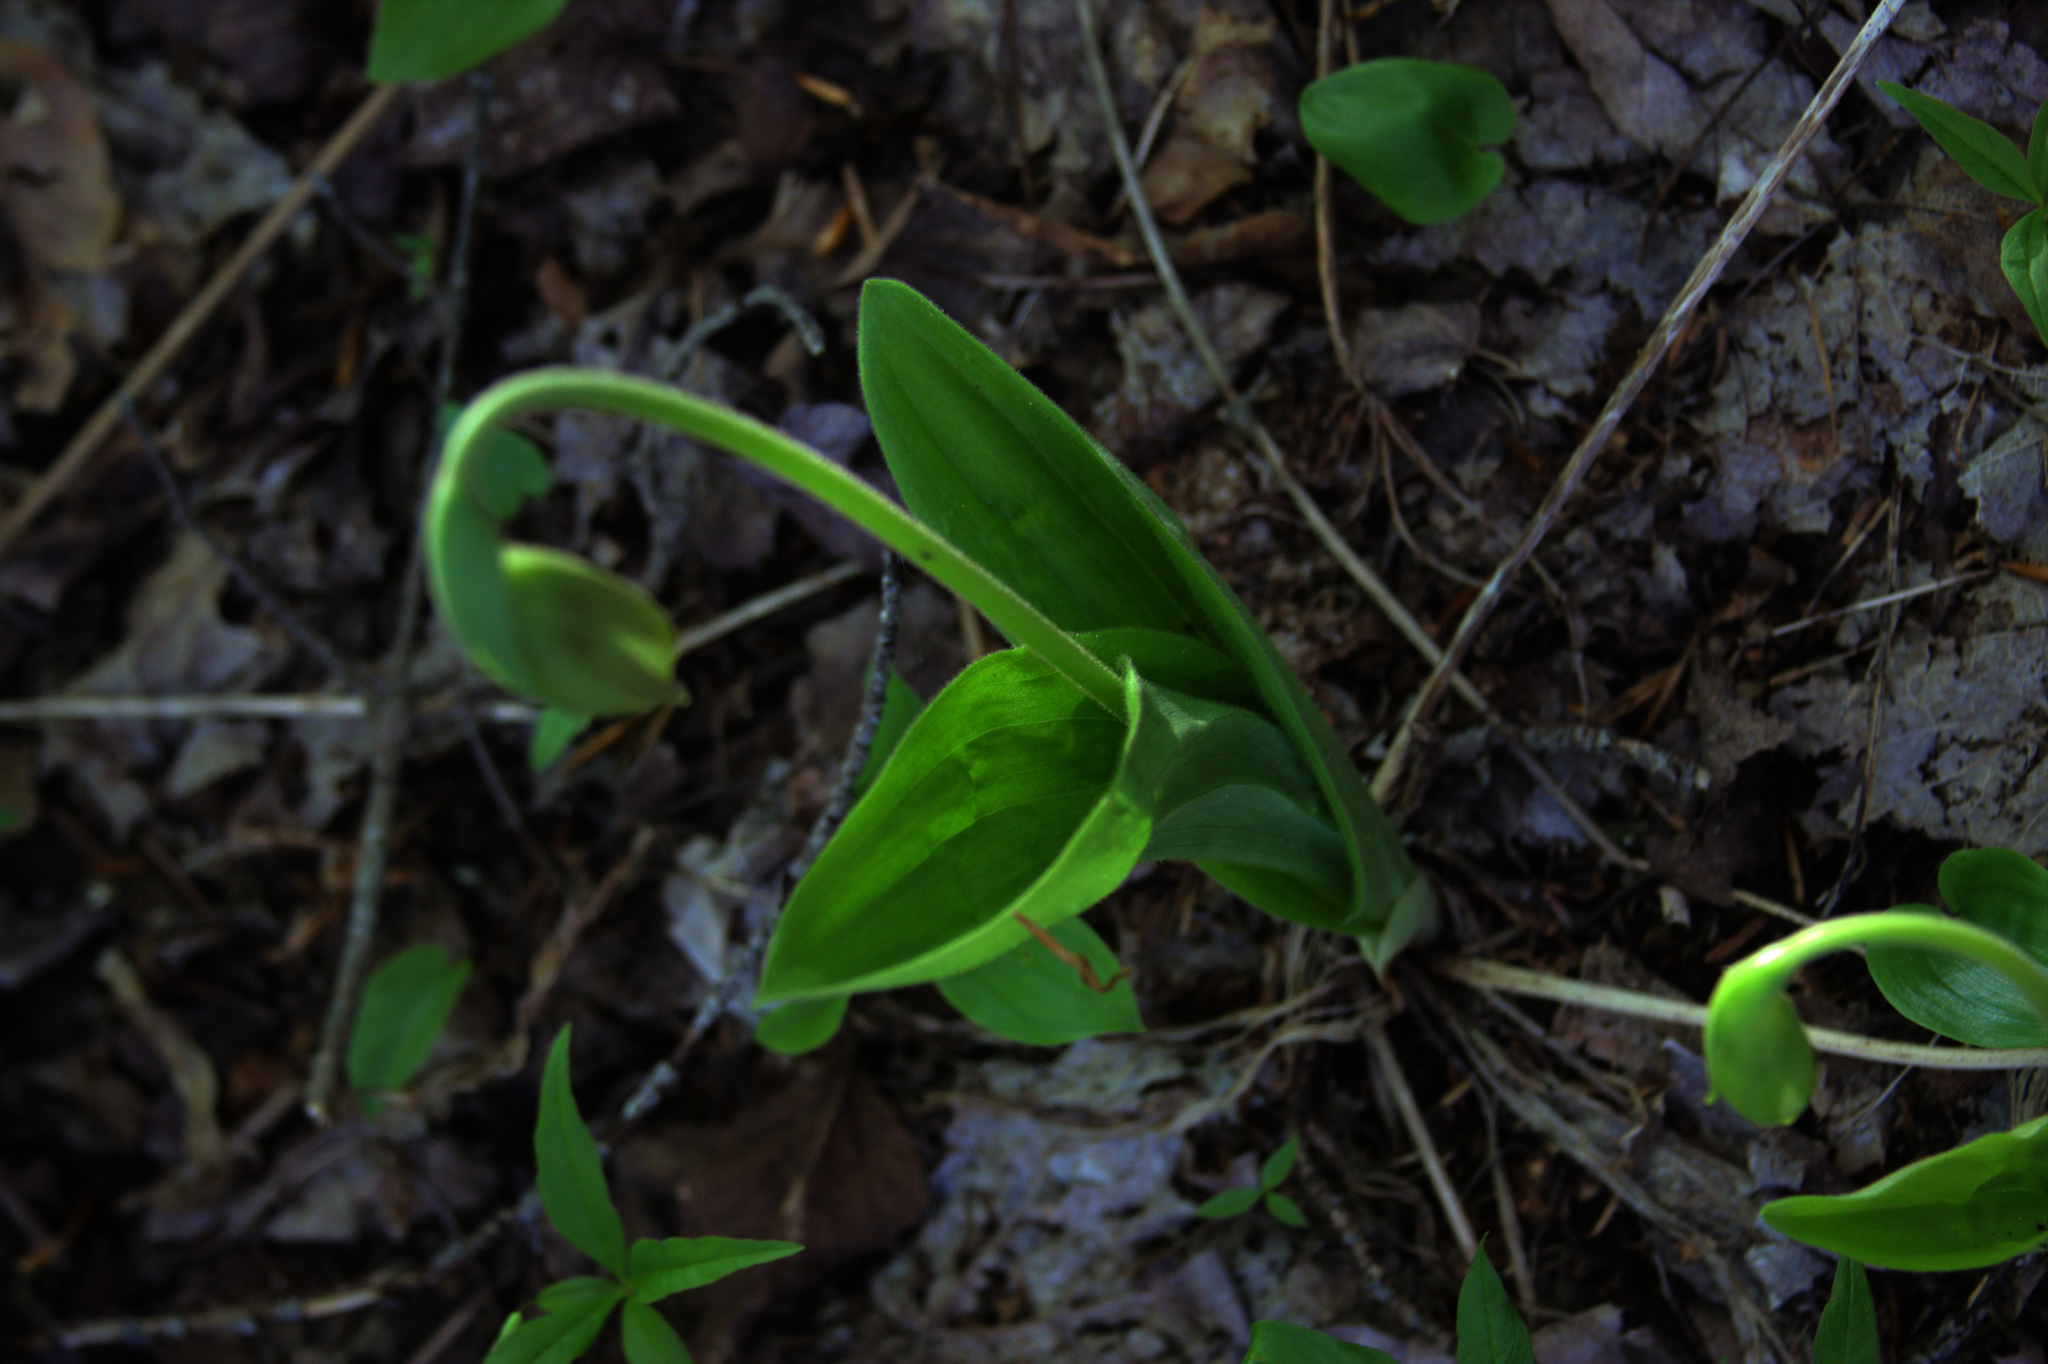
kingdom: Plantae
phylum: Tracheophyta
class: Liliopsida
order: Asparagales
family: Orchidaceae
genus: Cypripedium
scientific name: Cypripedium acaule
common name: Pink lady's-slipper
